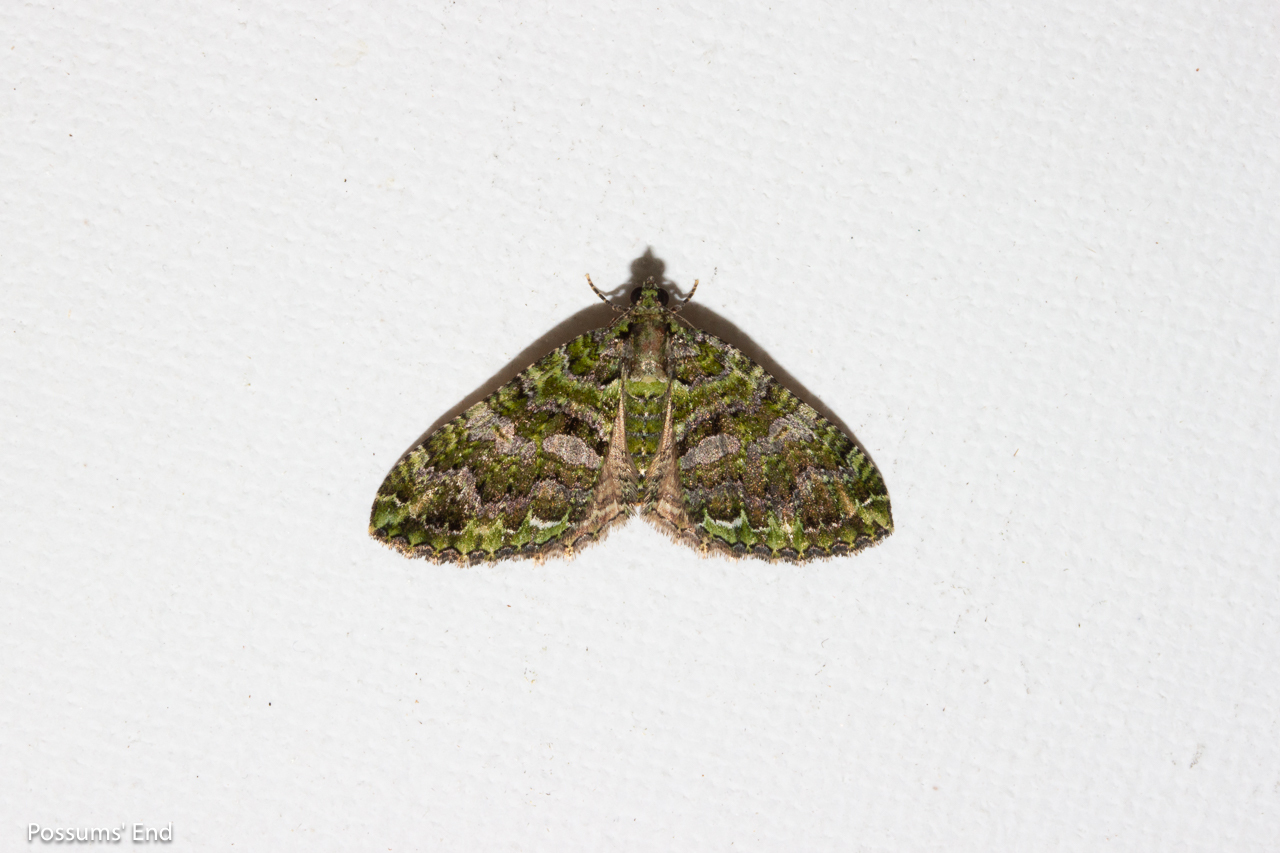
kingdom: Animalia
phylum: Arthropoda
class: Insecta
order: Lepidoptera
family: Geometridae
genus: Austrocidaria
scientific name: Austrocidaria similata
